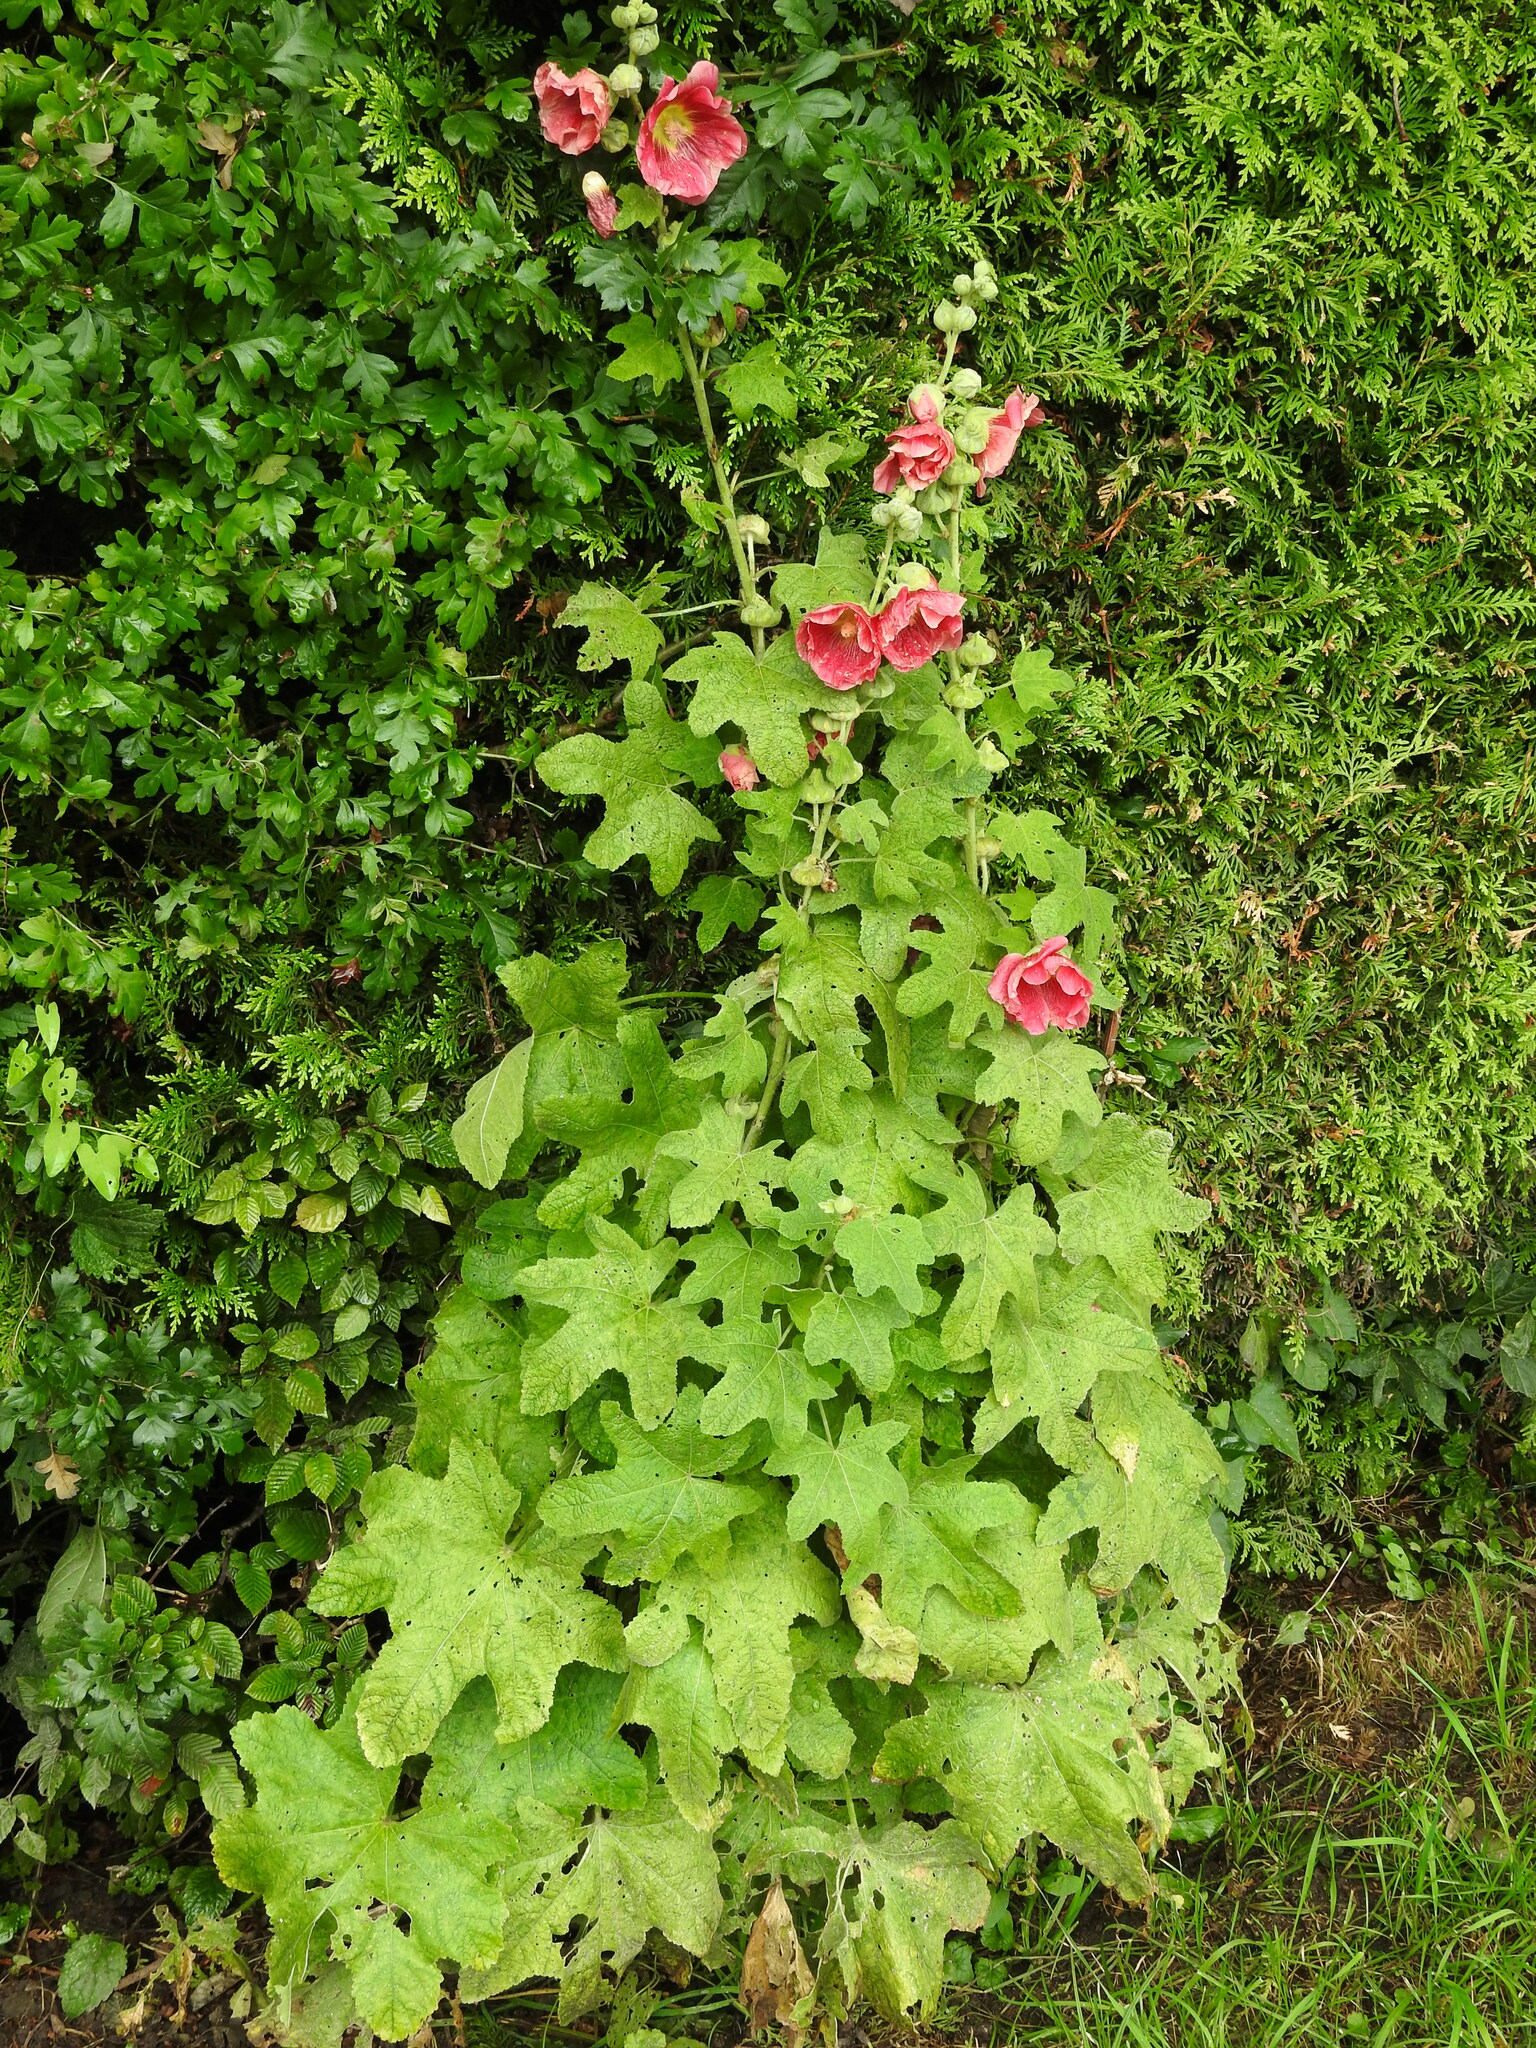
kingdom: Plantae
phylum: Tracheophyta
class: Magnoliopsida
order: Malvales
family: Malvaceae
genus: Alcea
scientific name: Alcea rosea
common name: Hollyhock
